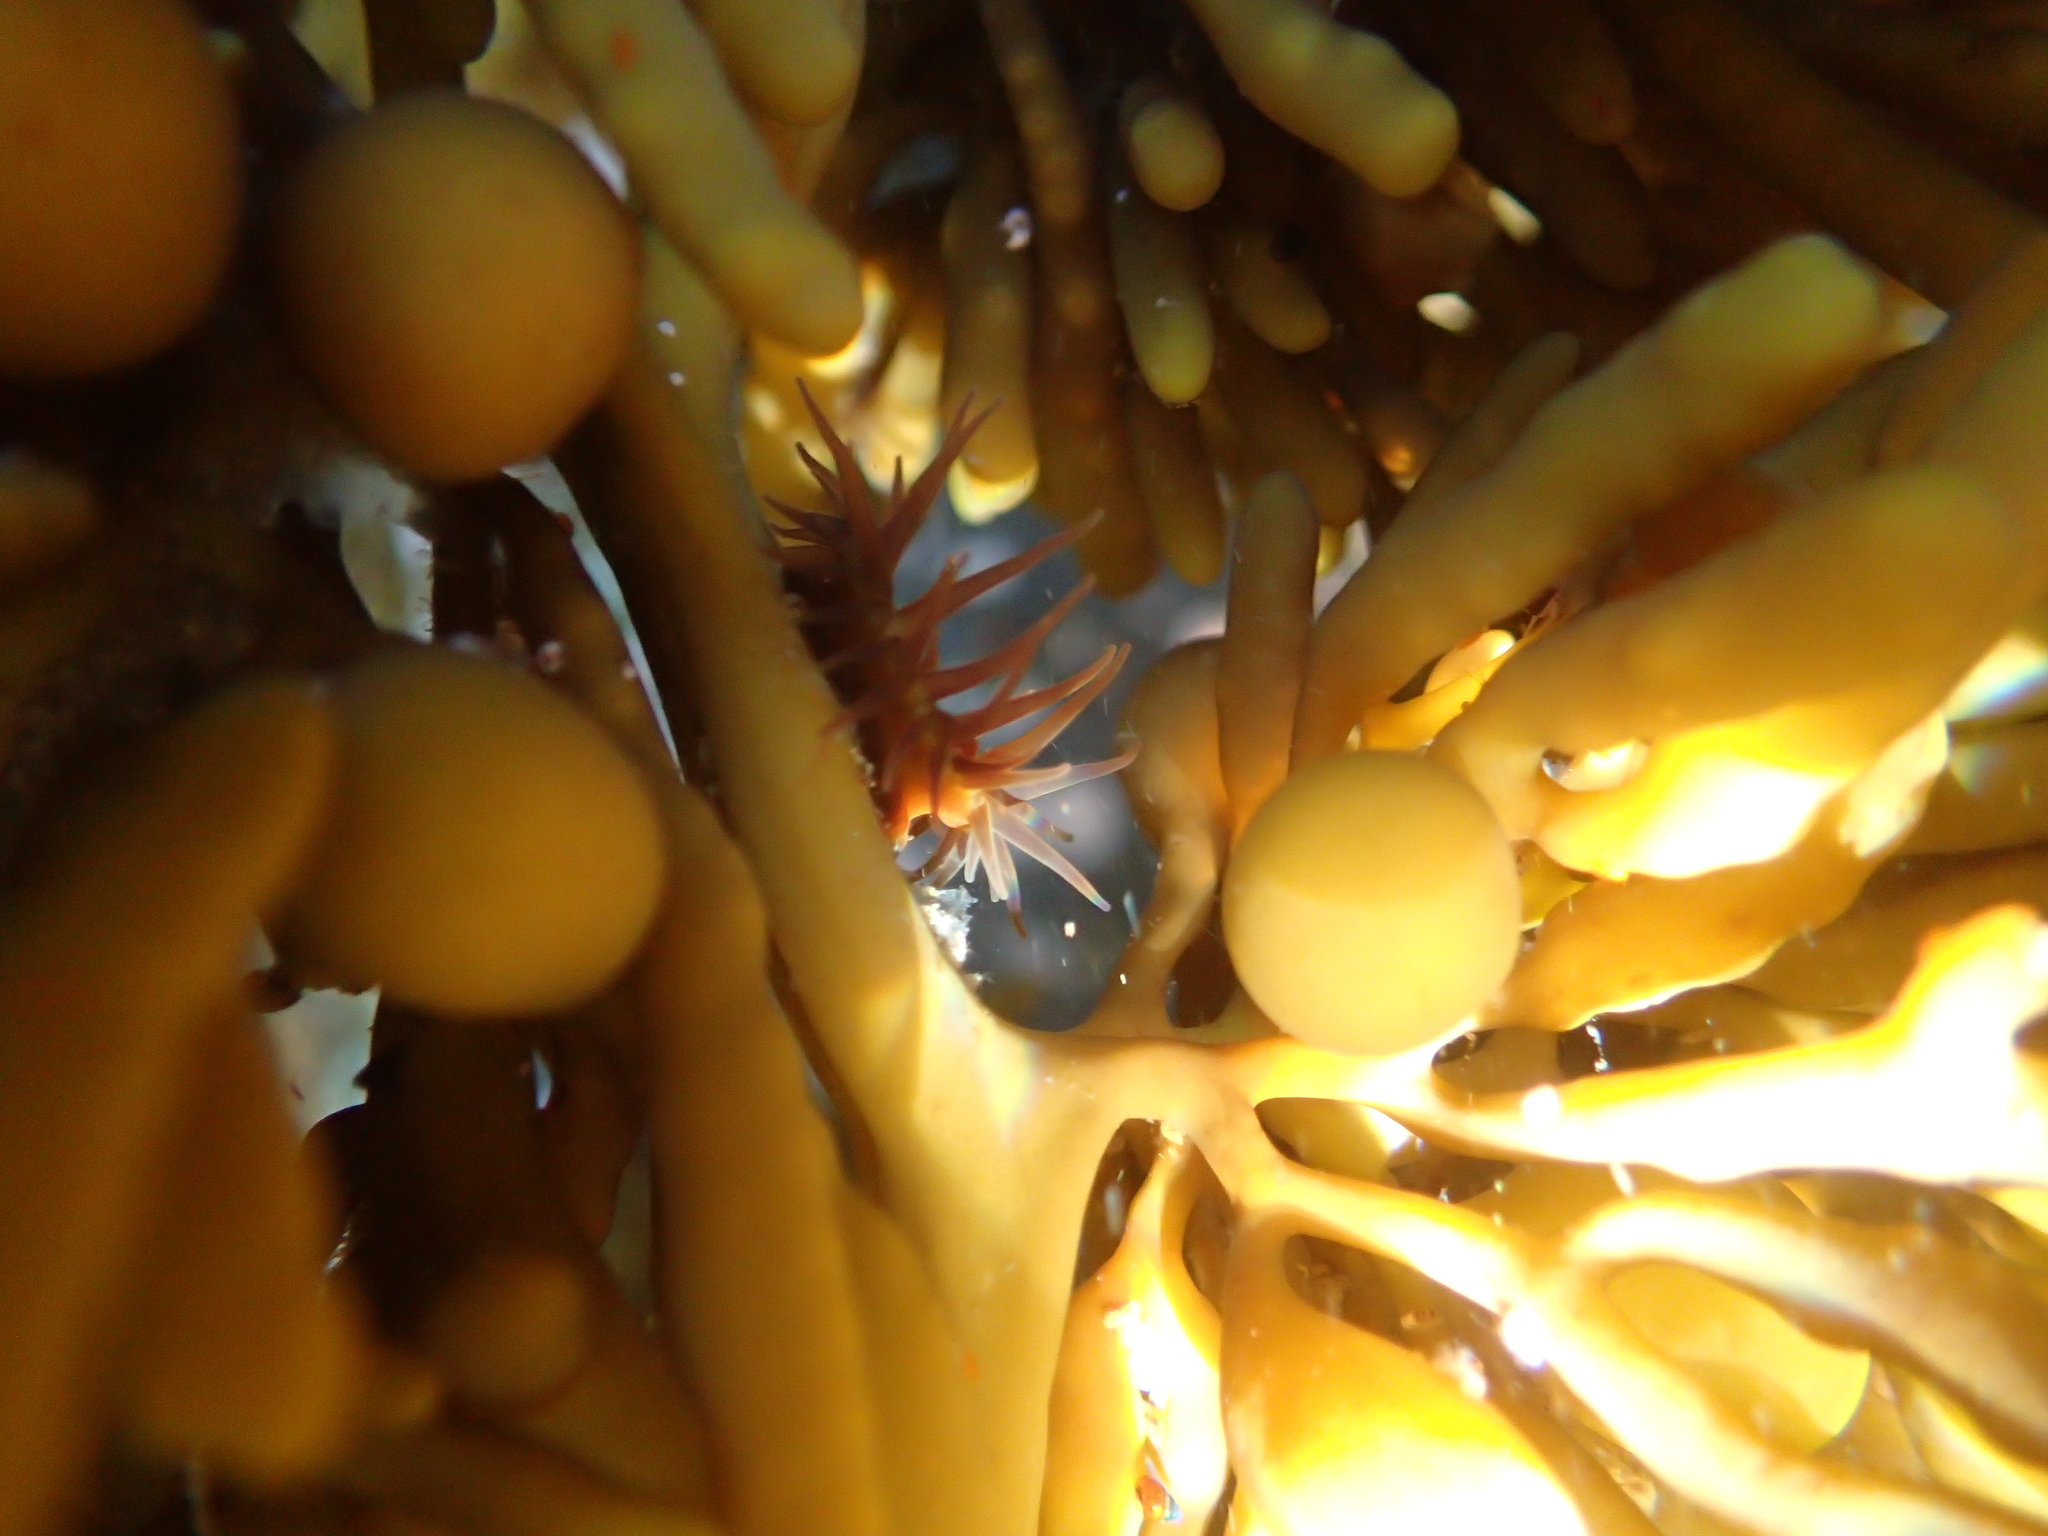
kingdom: Animalia
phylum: Cnidaria
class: Anthozoa
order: Actiniaria
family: Hormathiidae
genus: Handactis
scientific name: Handactis nutrix
